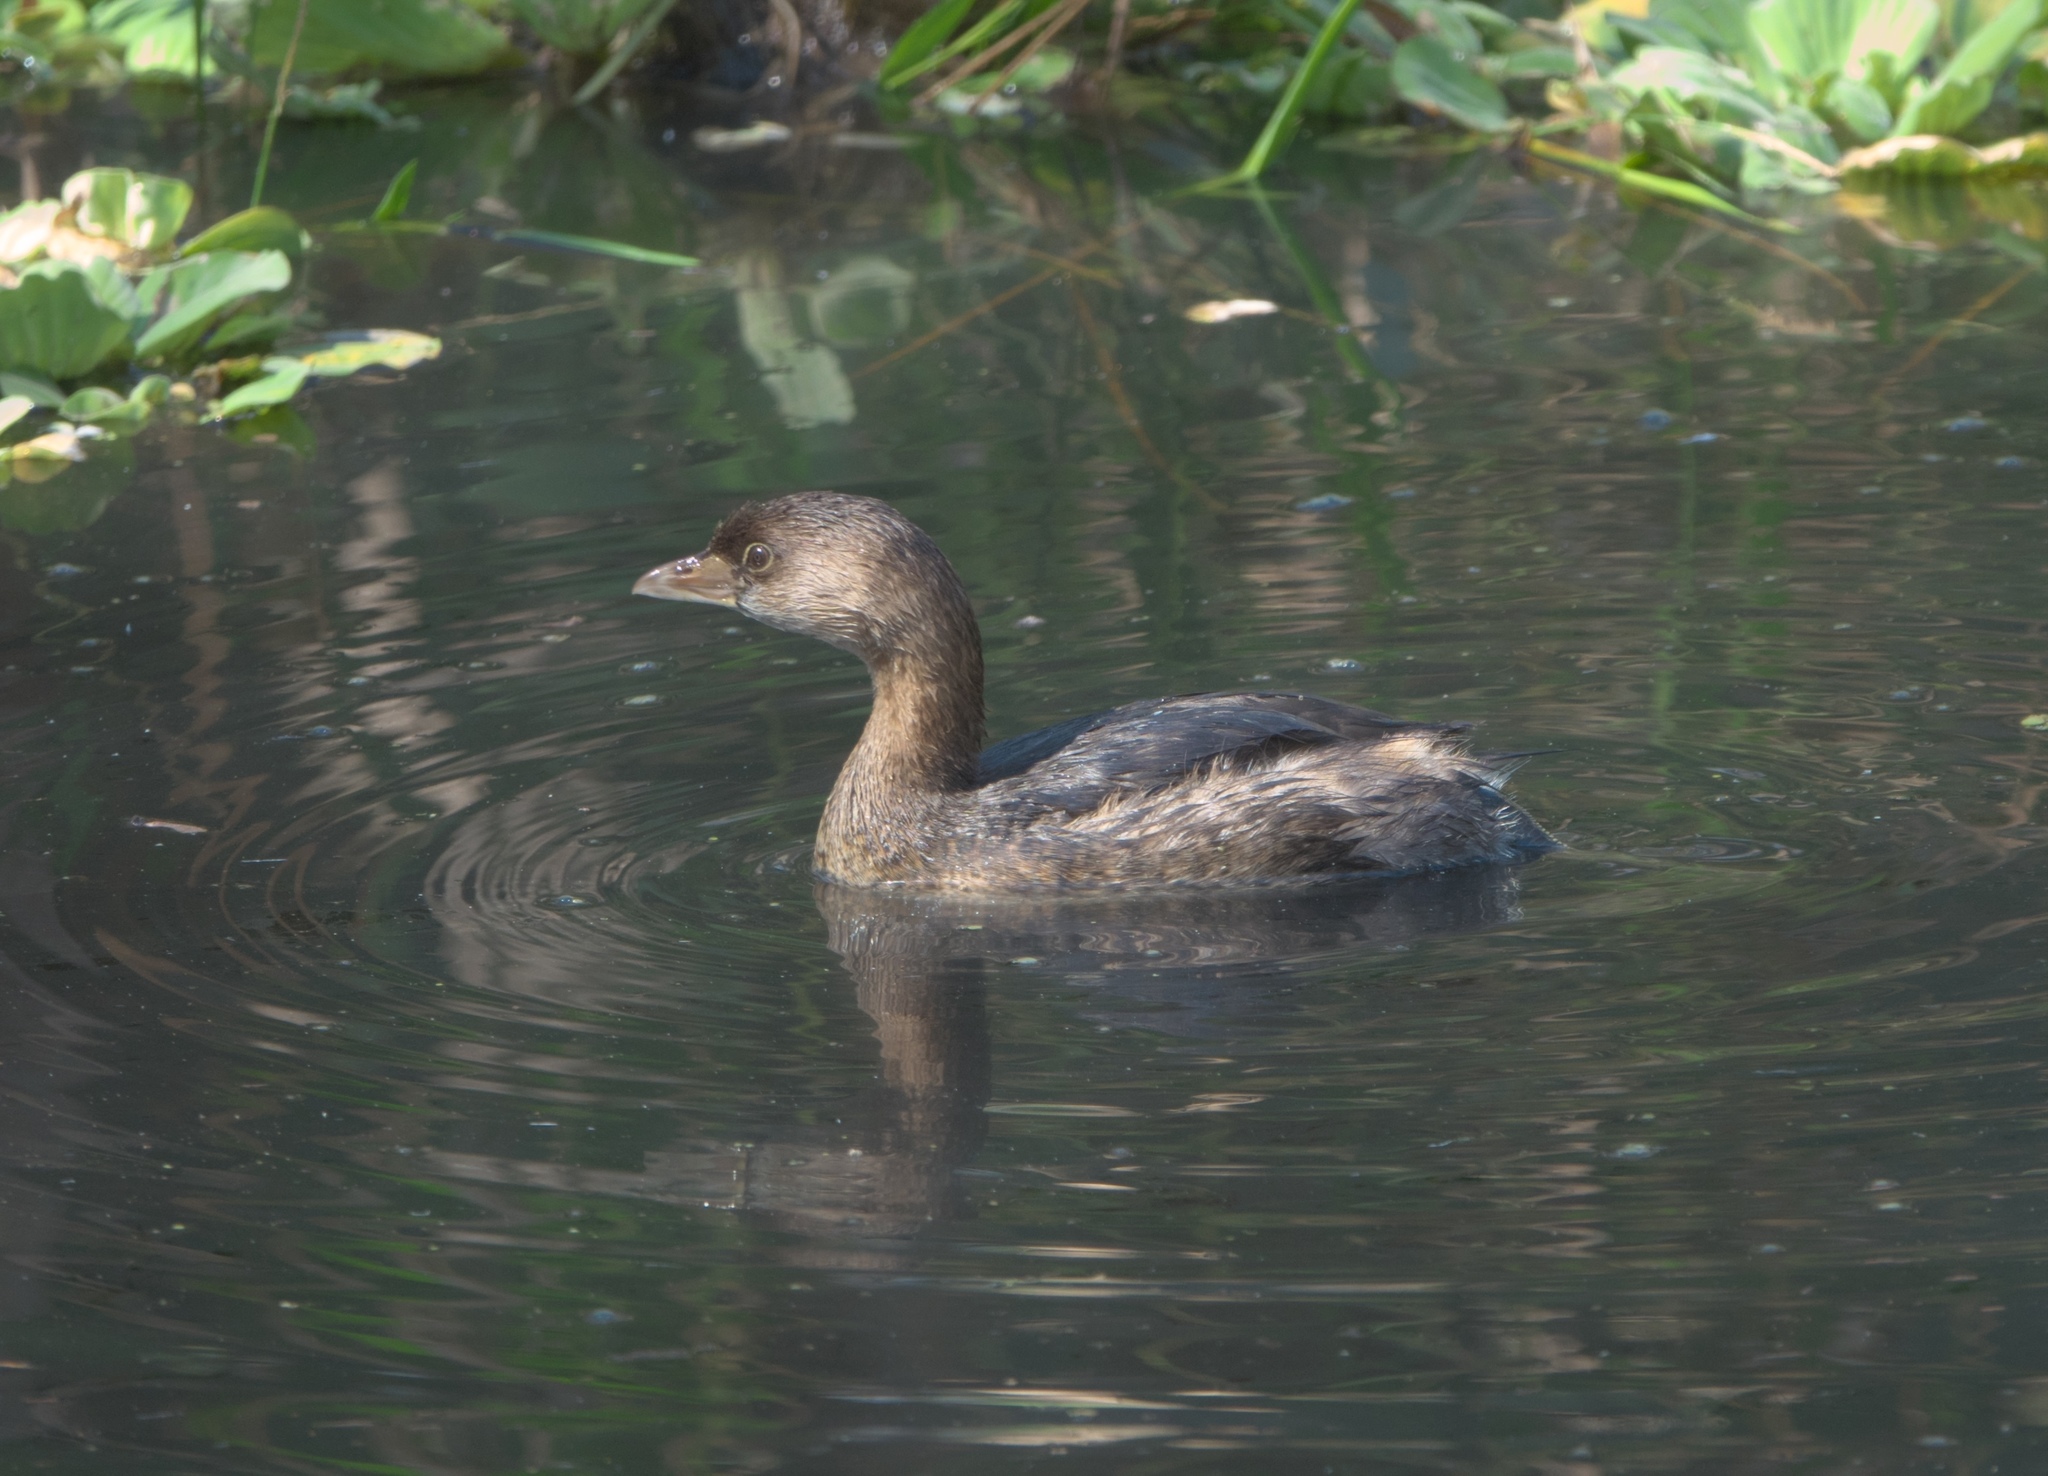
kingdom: Animalia
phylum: Chordata
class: Aves
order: Podicipediformes
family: Podicipedidae
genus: Podilymbus
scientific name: Podilymbus podiceps
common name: Pied-billed grebe
